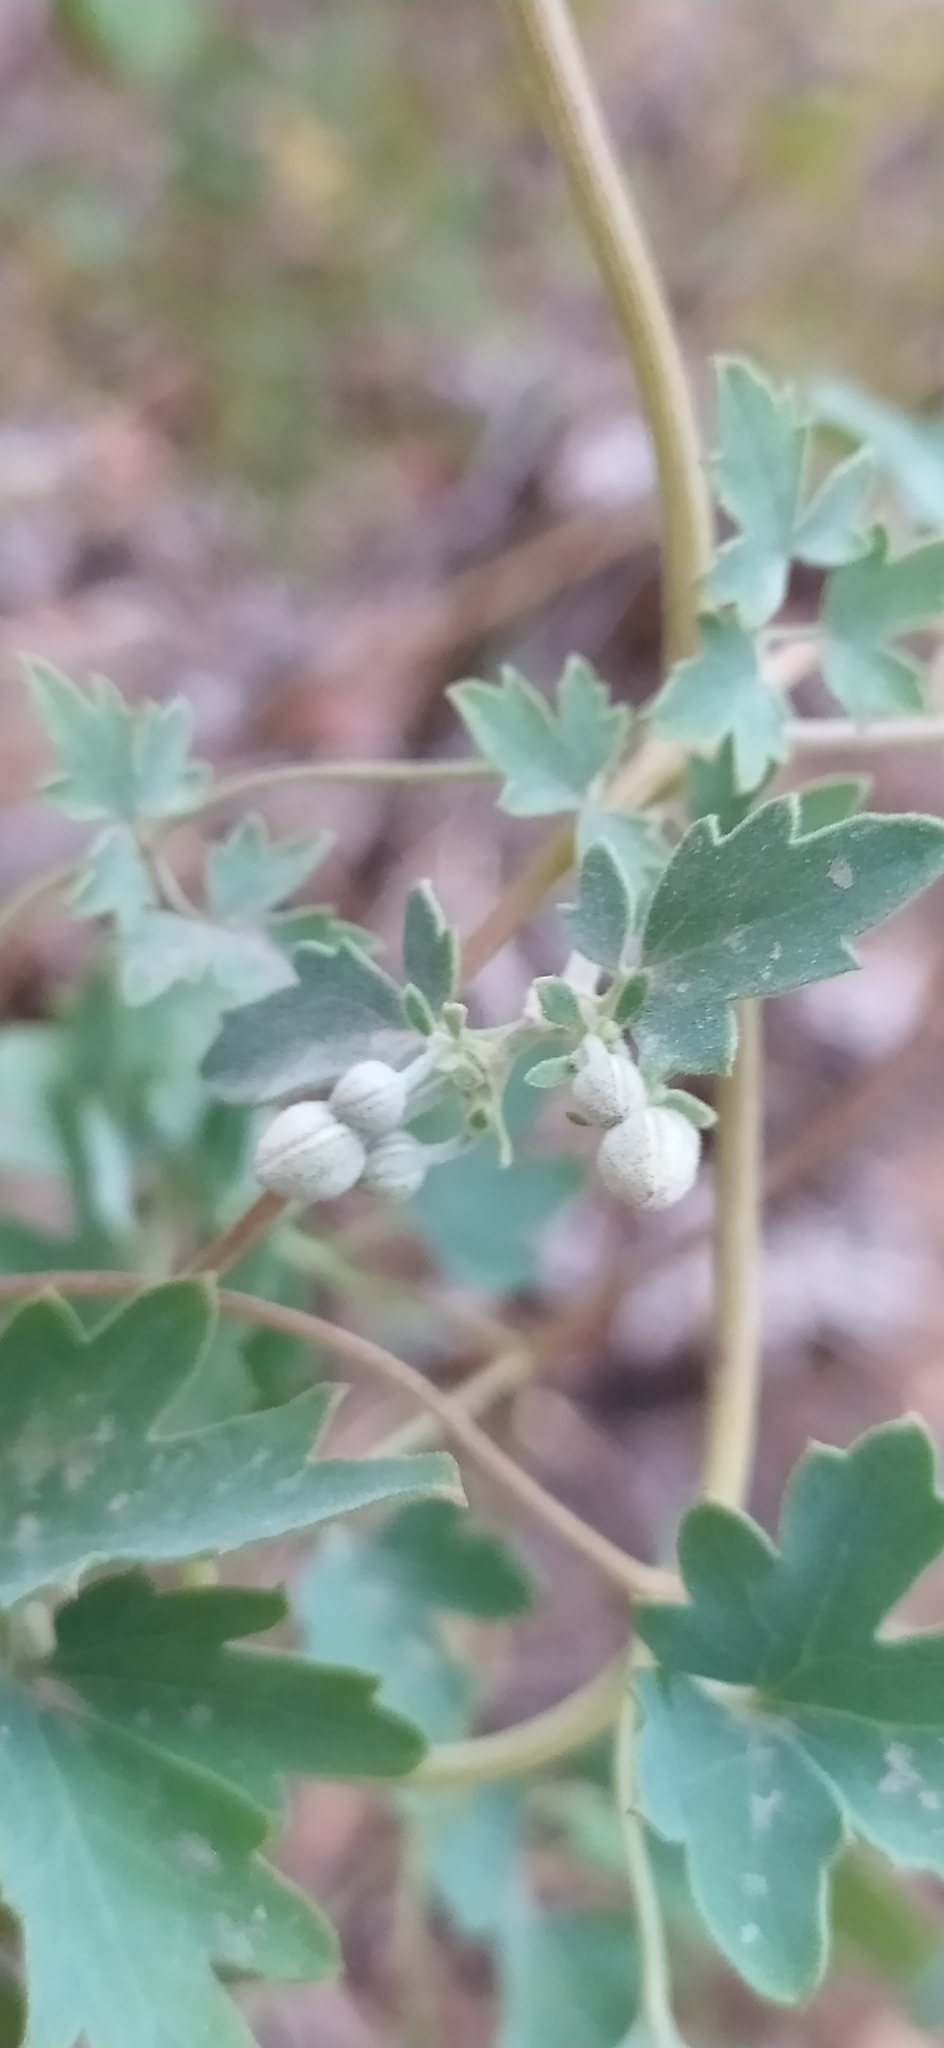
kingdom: Plantae
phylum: Tracheophyta
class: Magnoliopsida
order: Ranunculales
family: Ranunculaceae
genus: Clematis
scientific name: Clematis orientalis
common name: Oriental virgin's-bower
